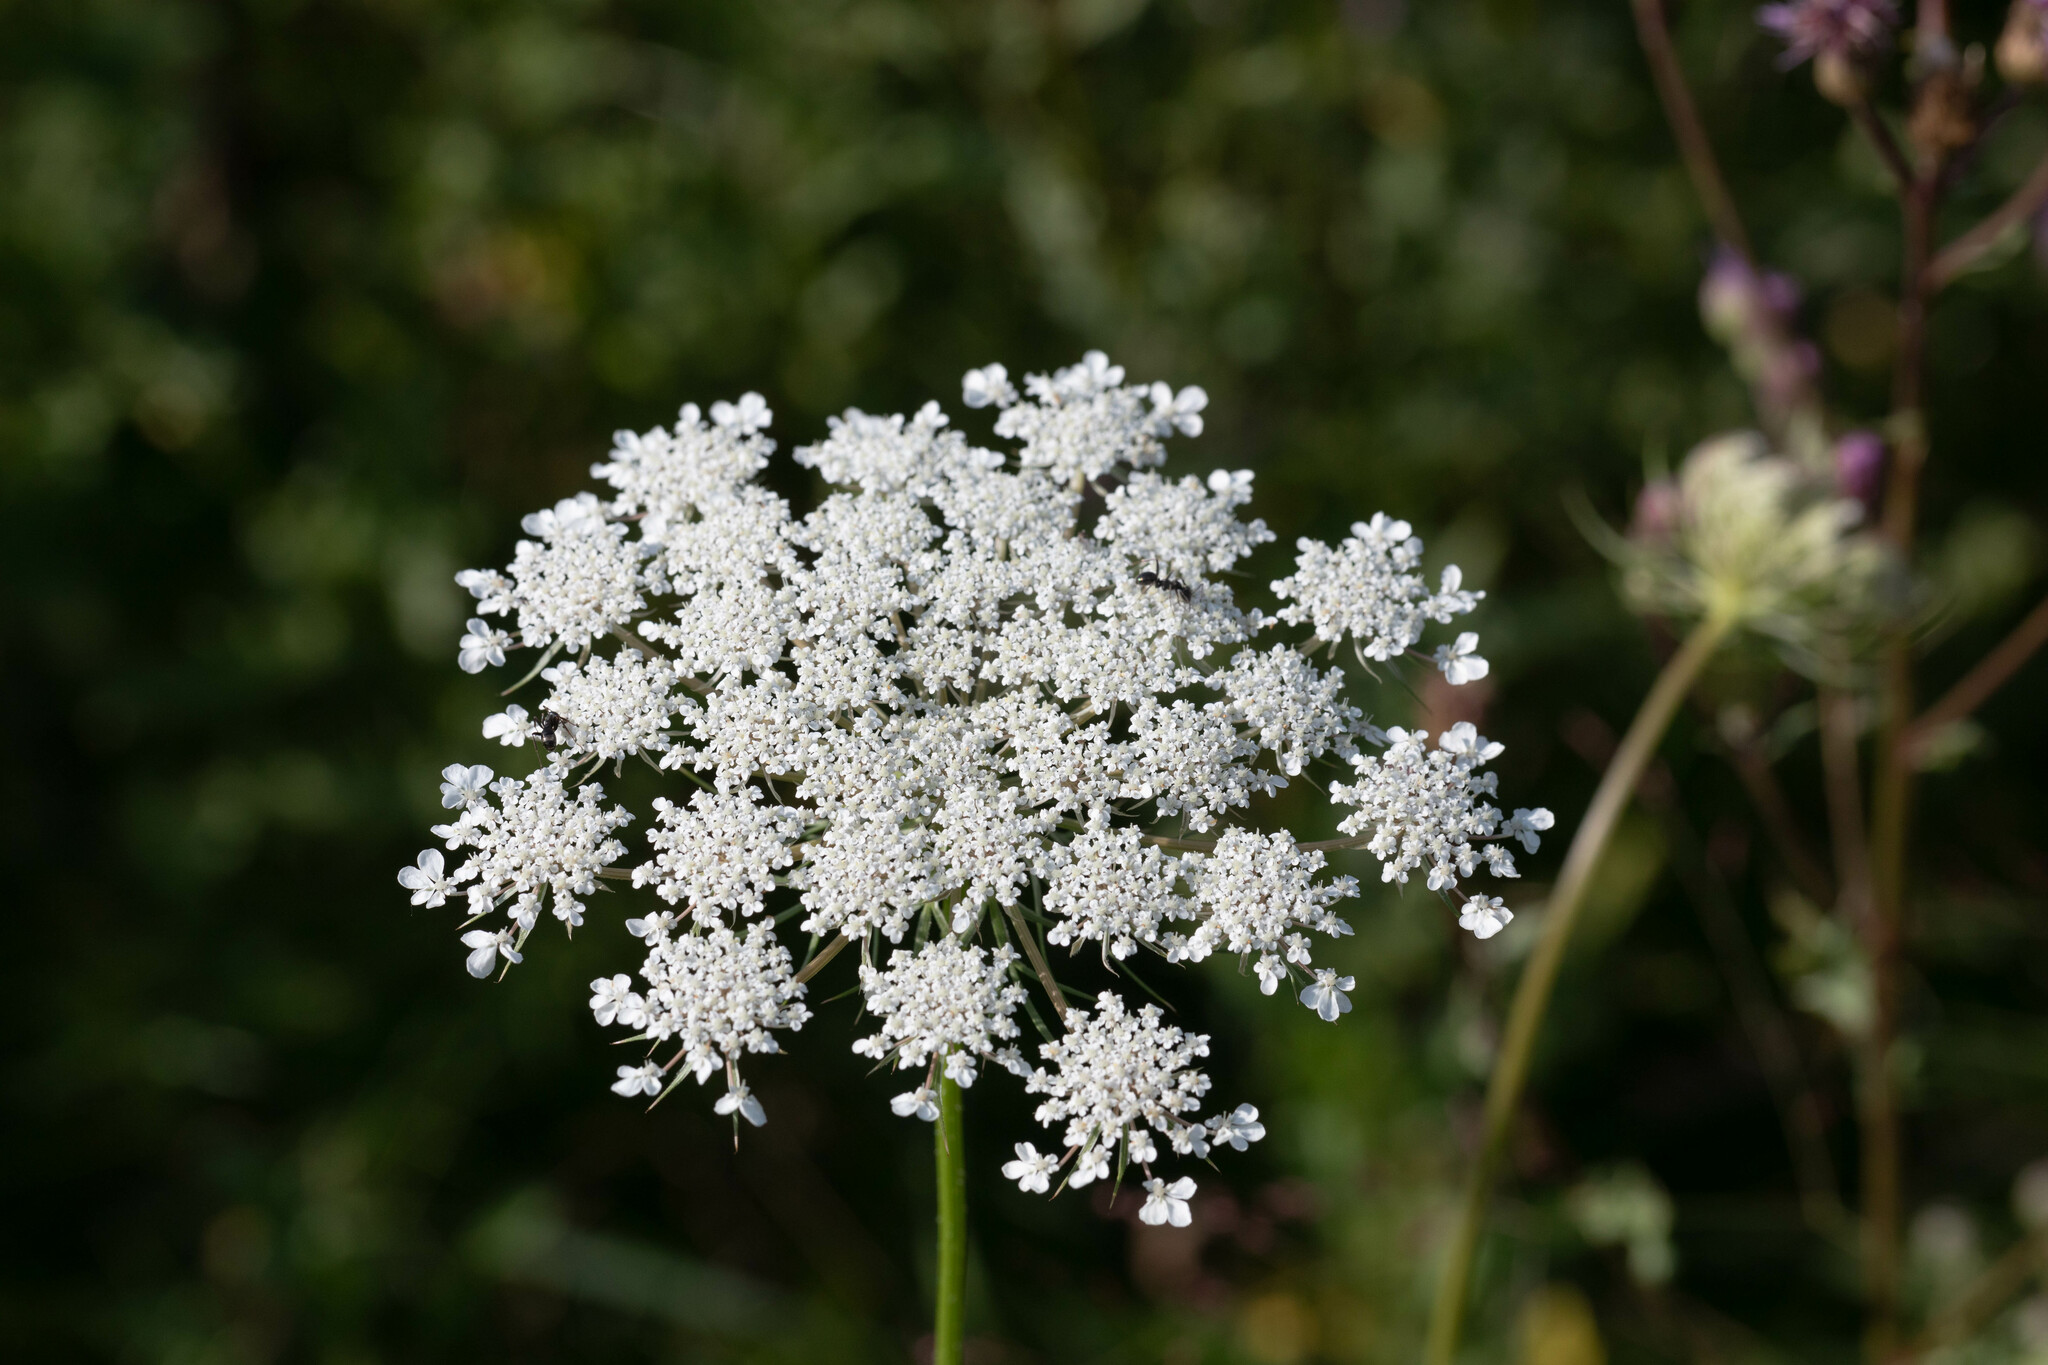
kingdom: Plantae
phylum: Tracheophyta
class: Magnoliopsida
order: Apiales
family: Apiaceae
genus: Daucus
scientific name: Daucus carota
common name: Wild carrot
